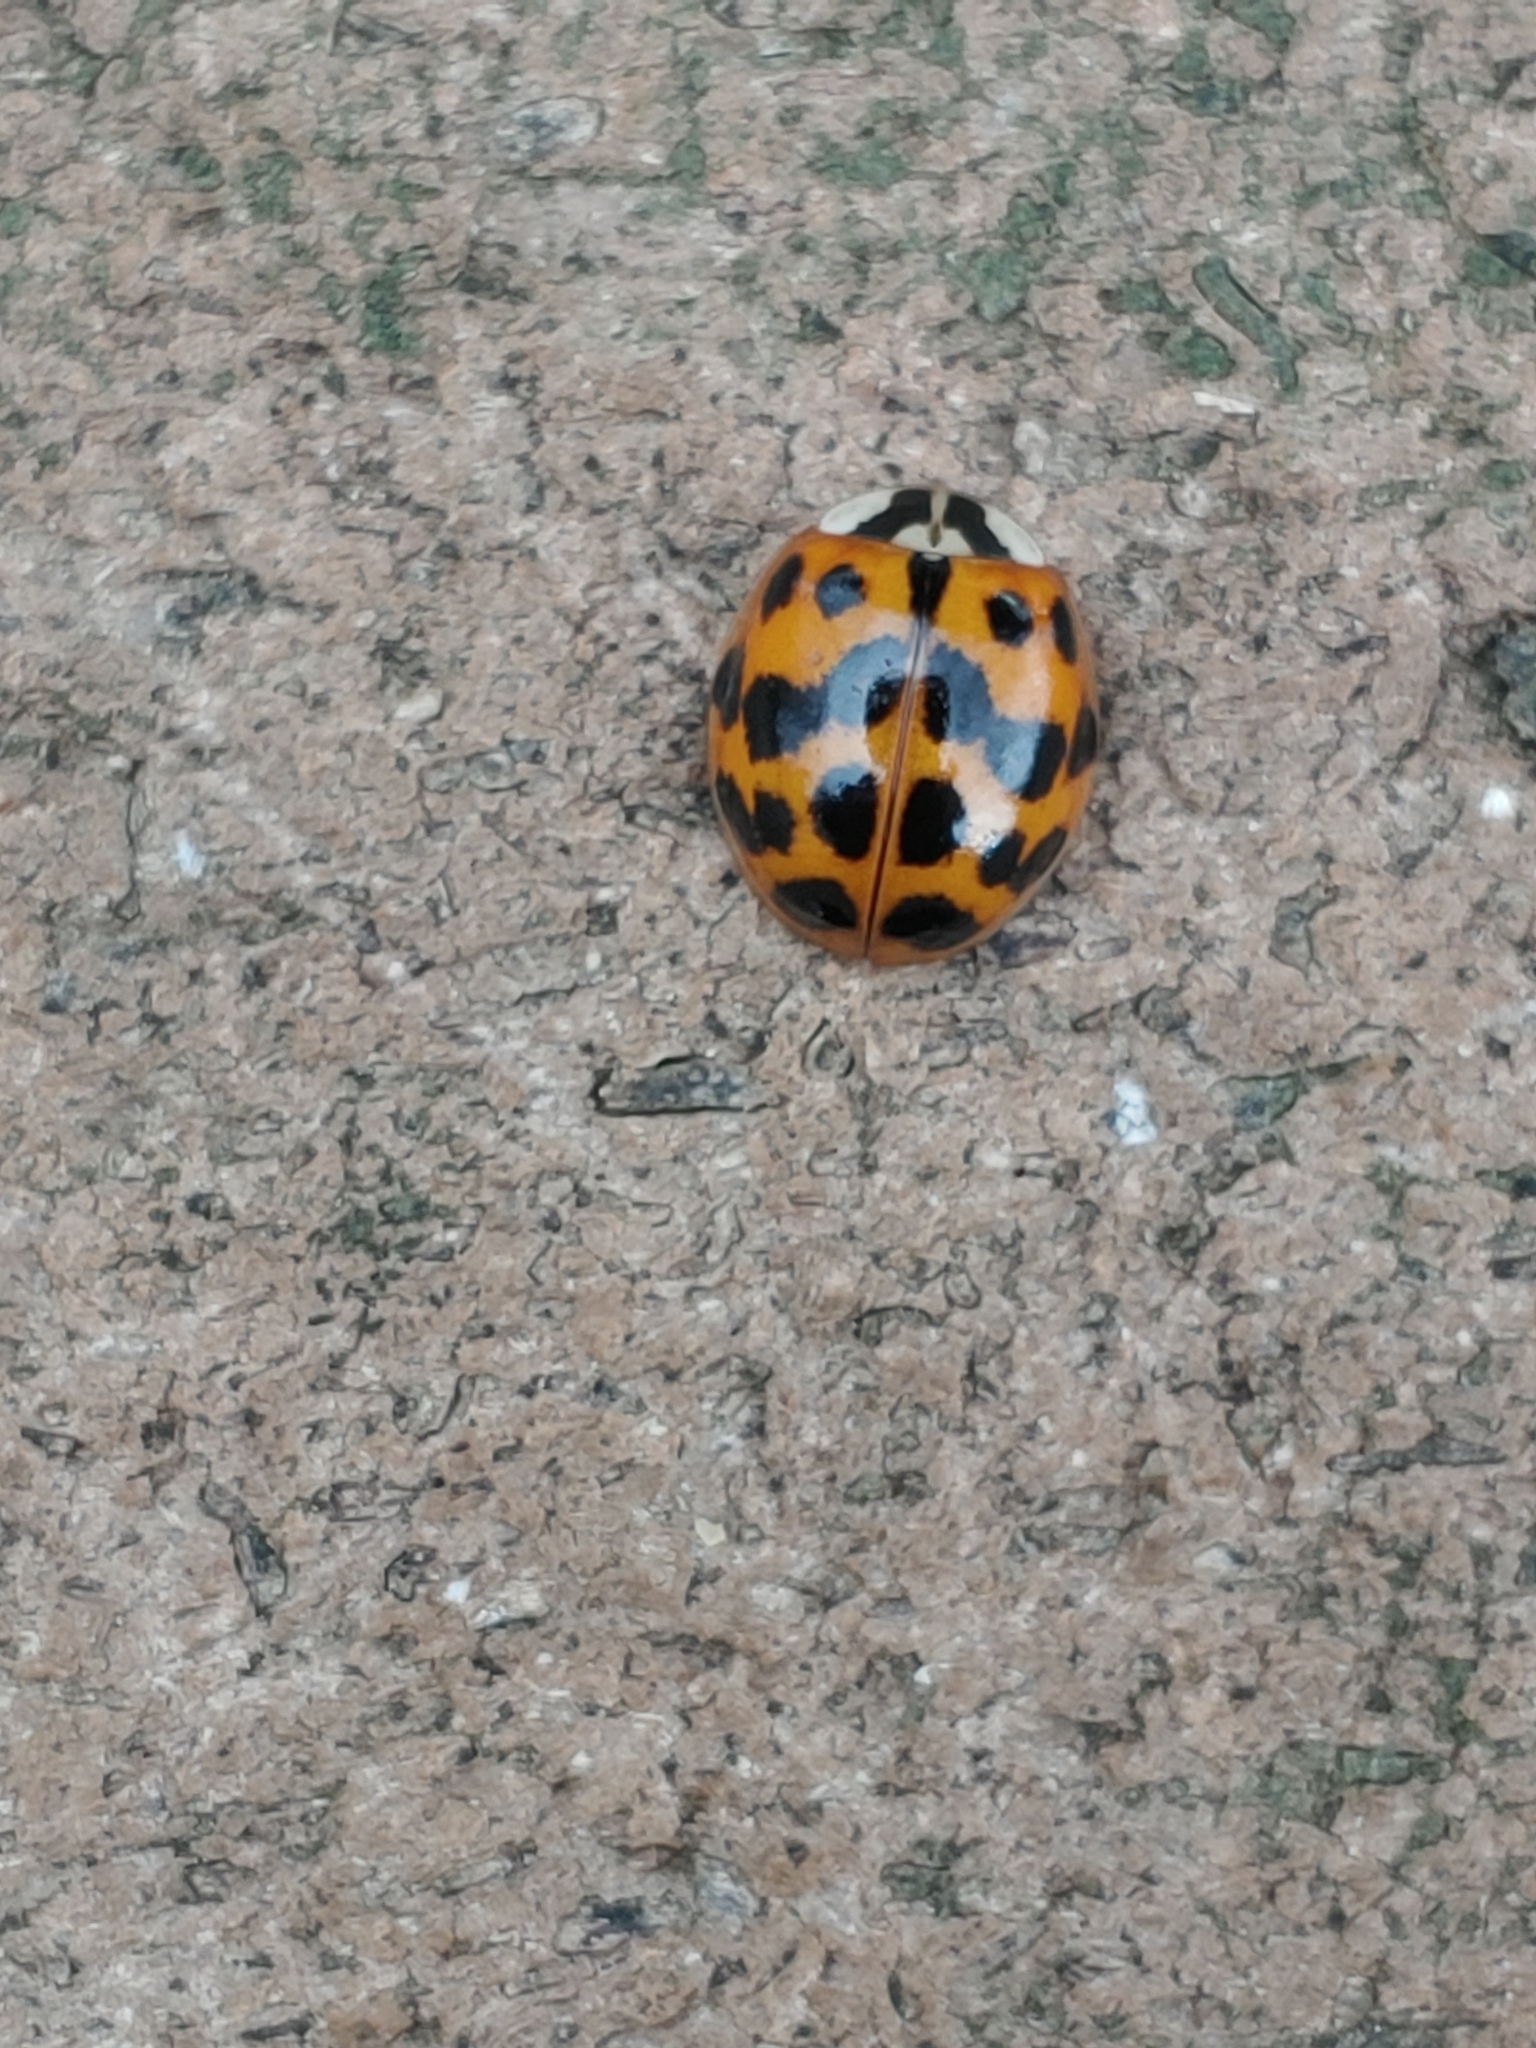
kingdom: Animalia
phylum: Arthropoda
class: Insecta
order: Coleoptera
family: Coccinellidae
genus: Harmonia
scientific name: Harmonia axyridis
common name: Harlequin ladybird
